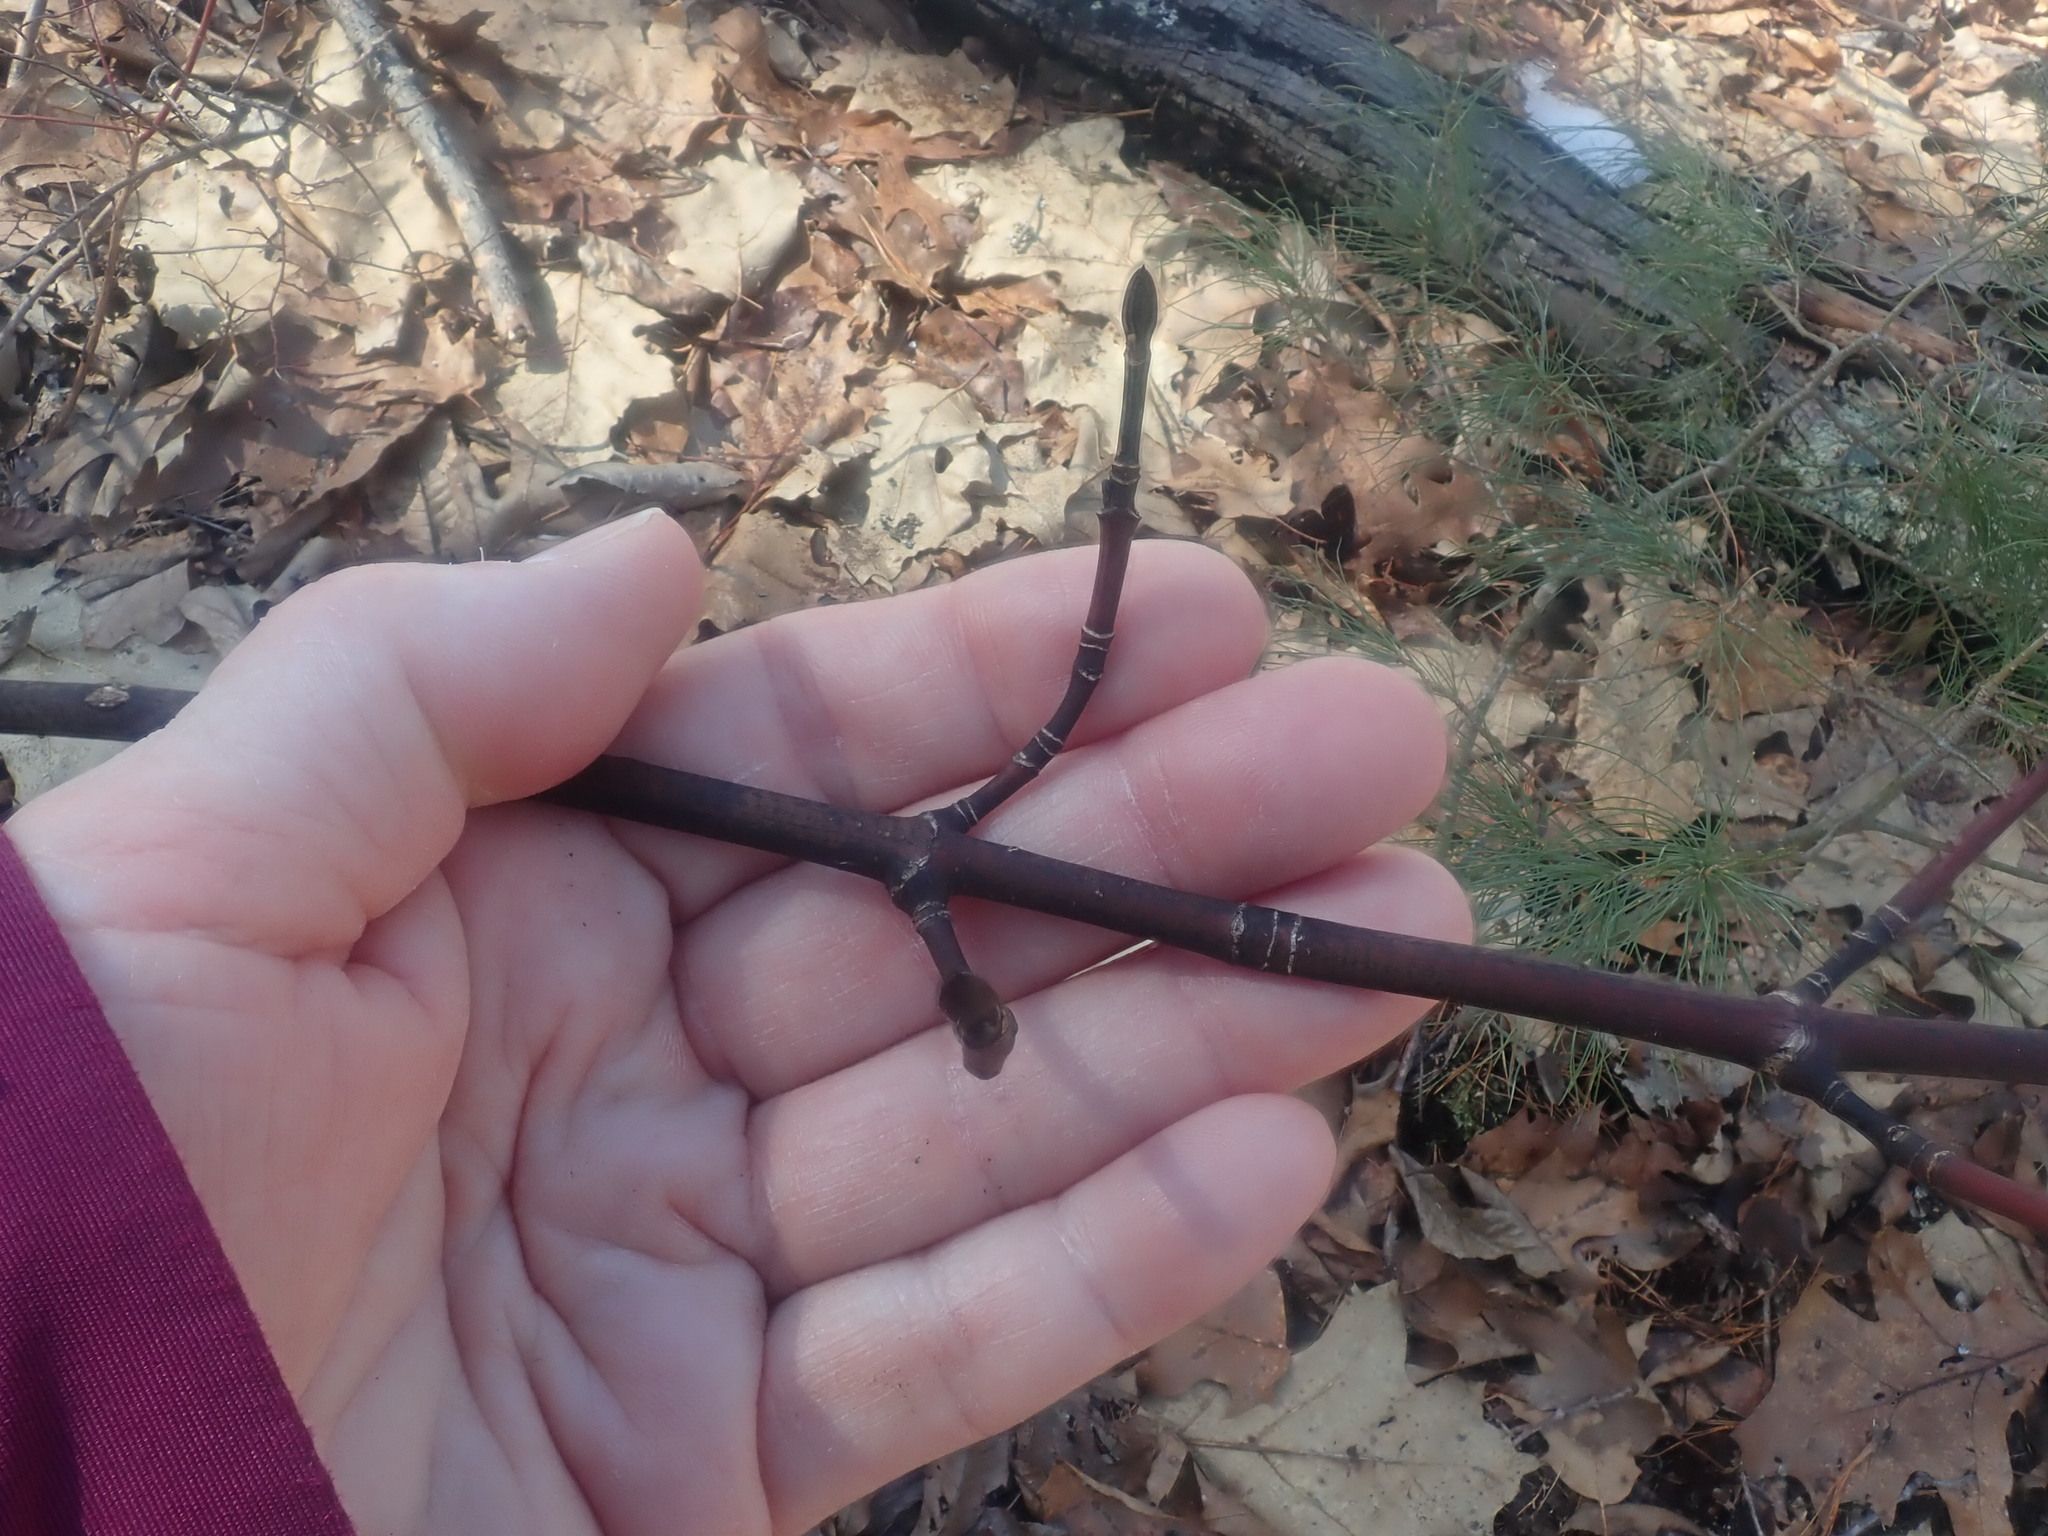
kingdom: Plantae
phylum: Tracheophyta
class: Magnoliopsida
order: Sapindales
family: Sapindaceae
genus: Acer
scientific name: Acer pensylvanicum
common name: Moosewood
